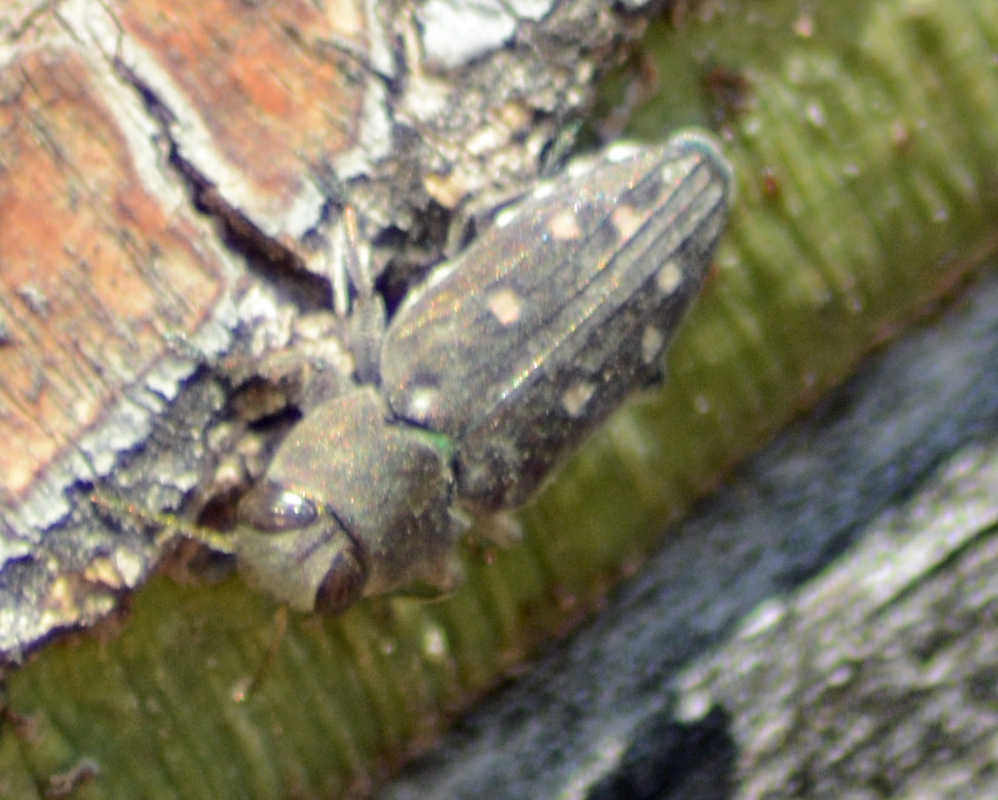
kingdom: Animalia
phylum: Arthropoda
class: Insecta
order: Coleoptera
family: Buprestidae
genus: Chrysobothris
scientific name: Chrysobothris octocola
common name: Jewel beetle
